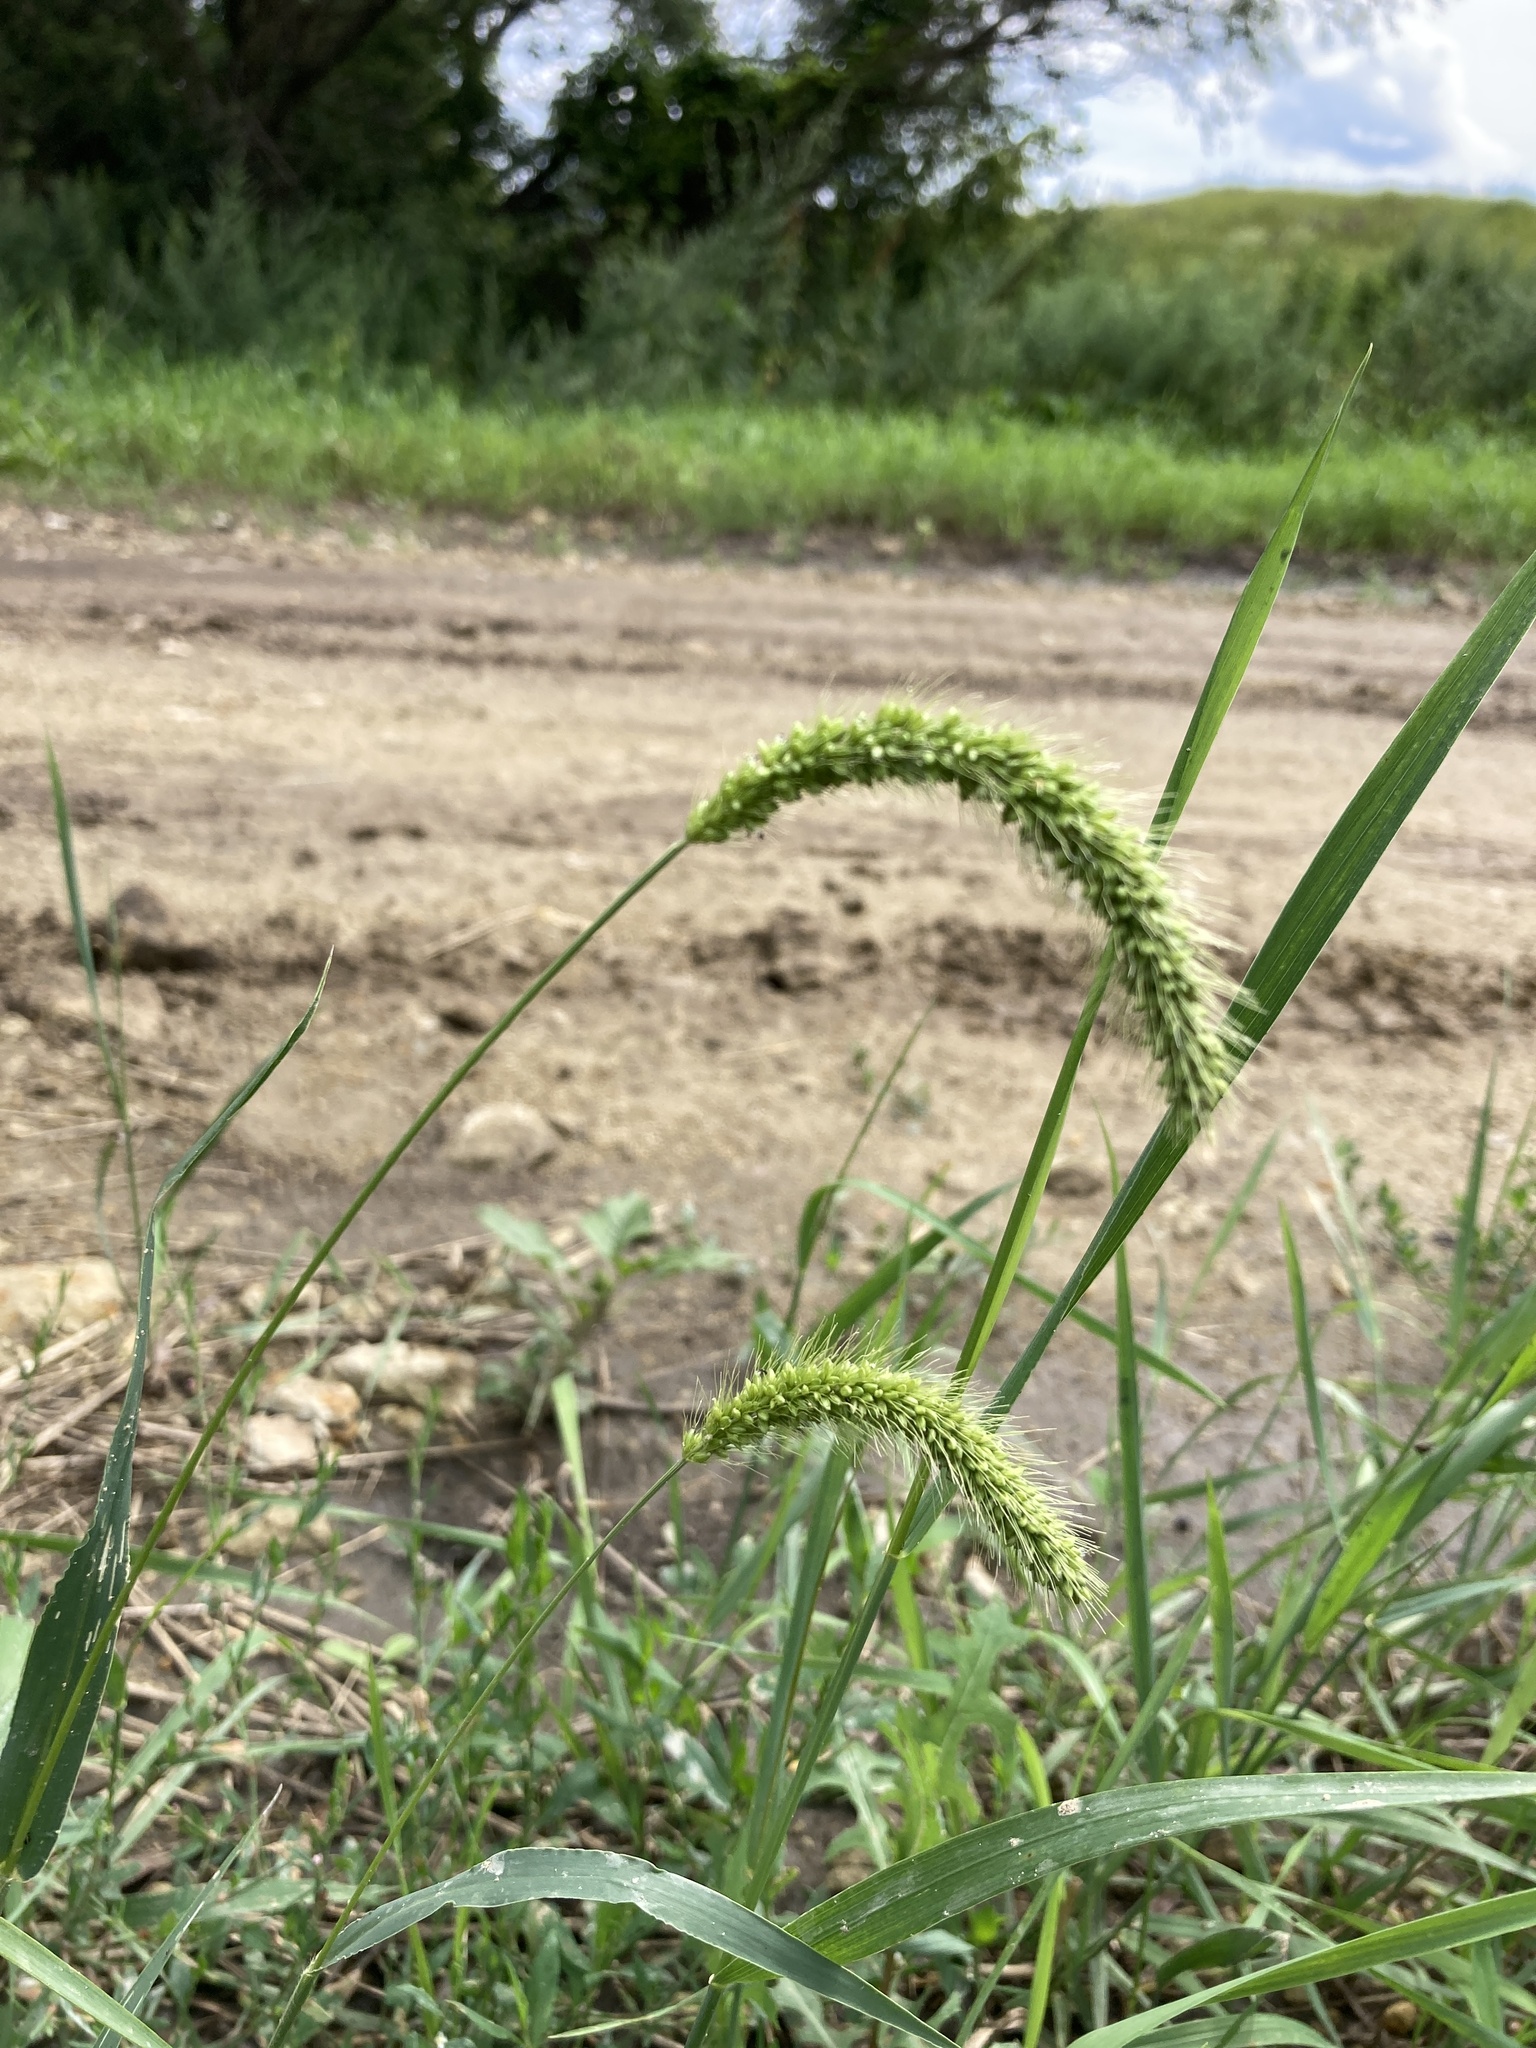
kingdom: Plantae
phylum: Tracheophyta
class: Liliopsida
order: Poales
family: Poaceae
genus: Setaria
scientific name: Setaria viridis
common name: Green bristlegrass
